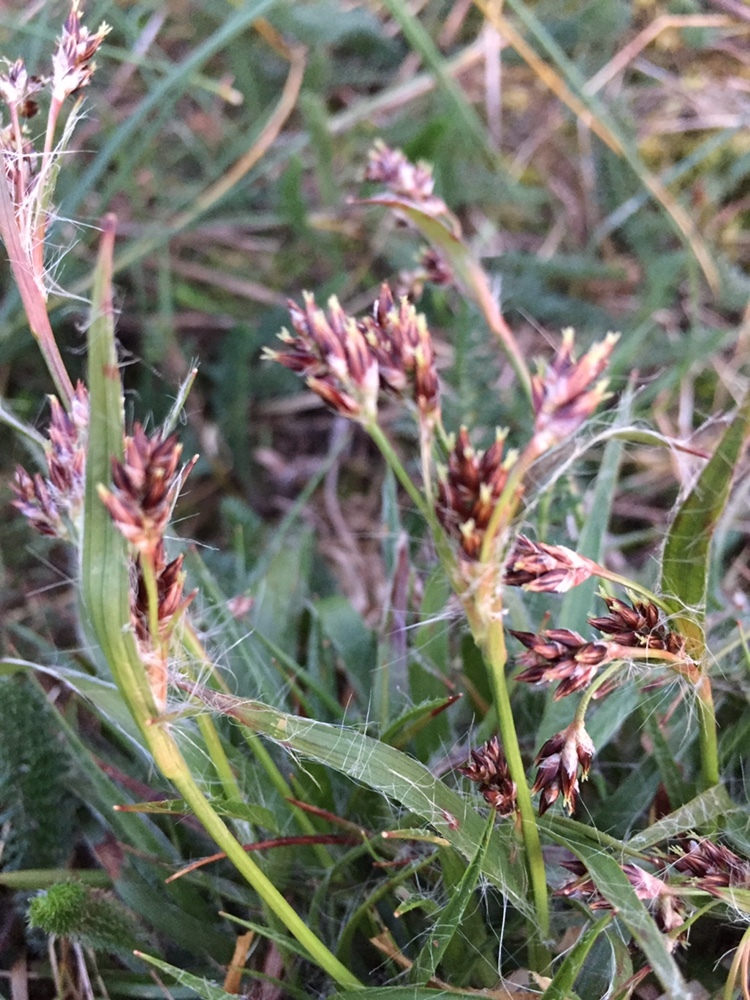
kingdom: Plantae
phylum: Tracheophyta
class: Liliopsida
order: Poales
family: Juncaceae
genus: Luzula
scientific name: Luzula campestris
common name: Field wood-rush
